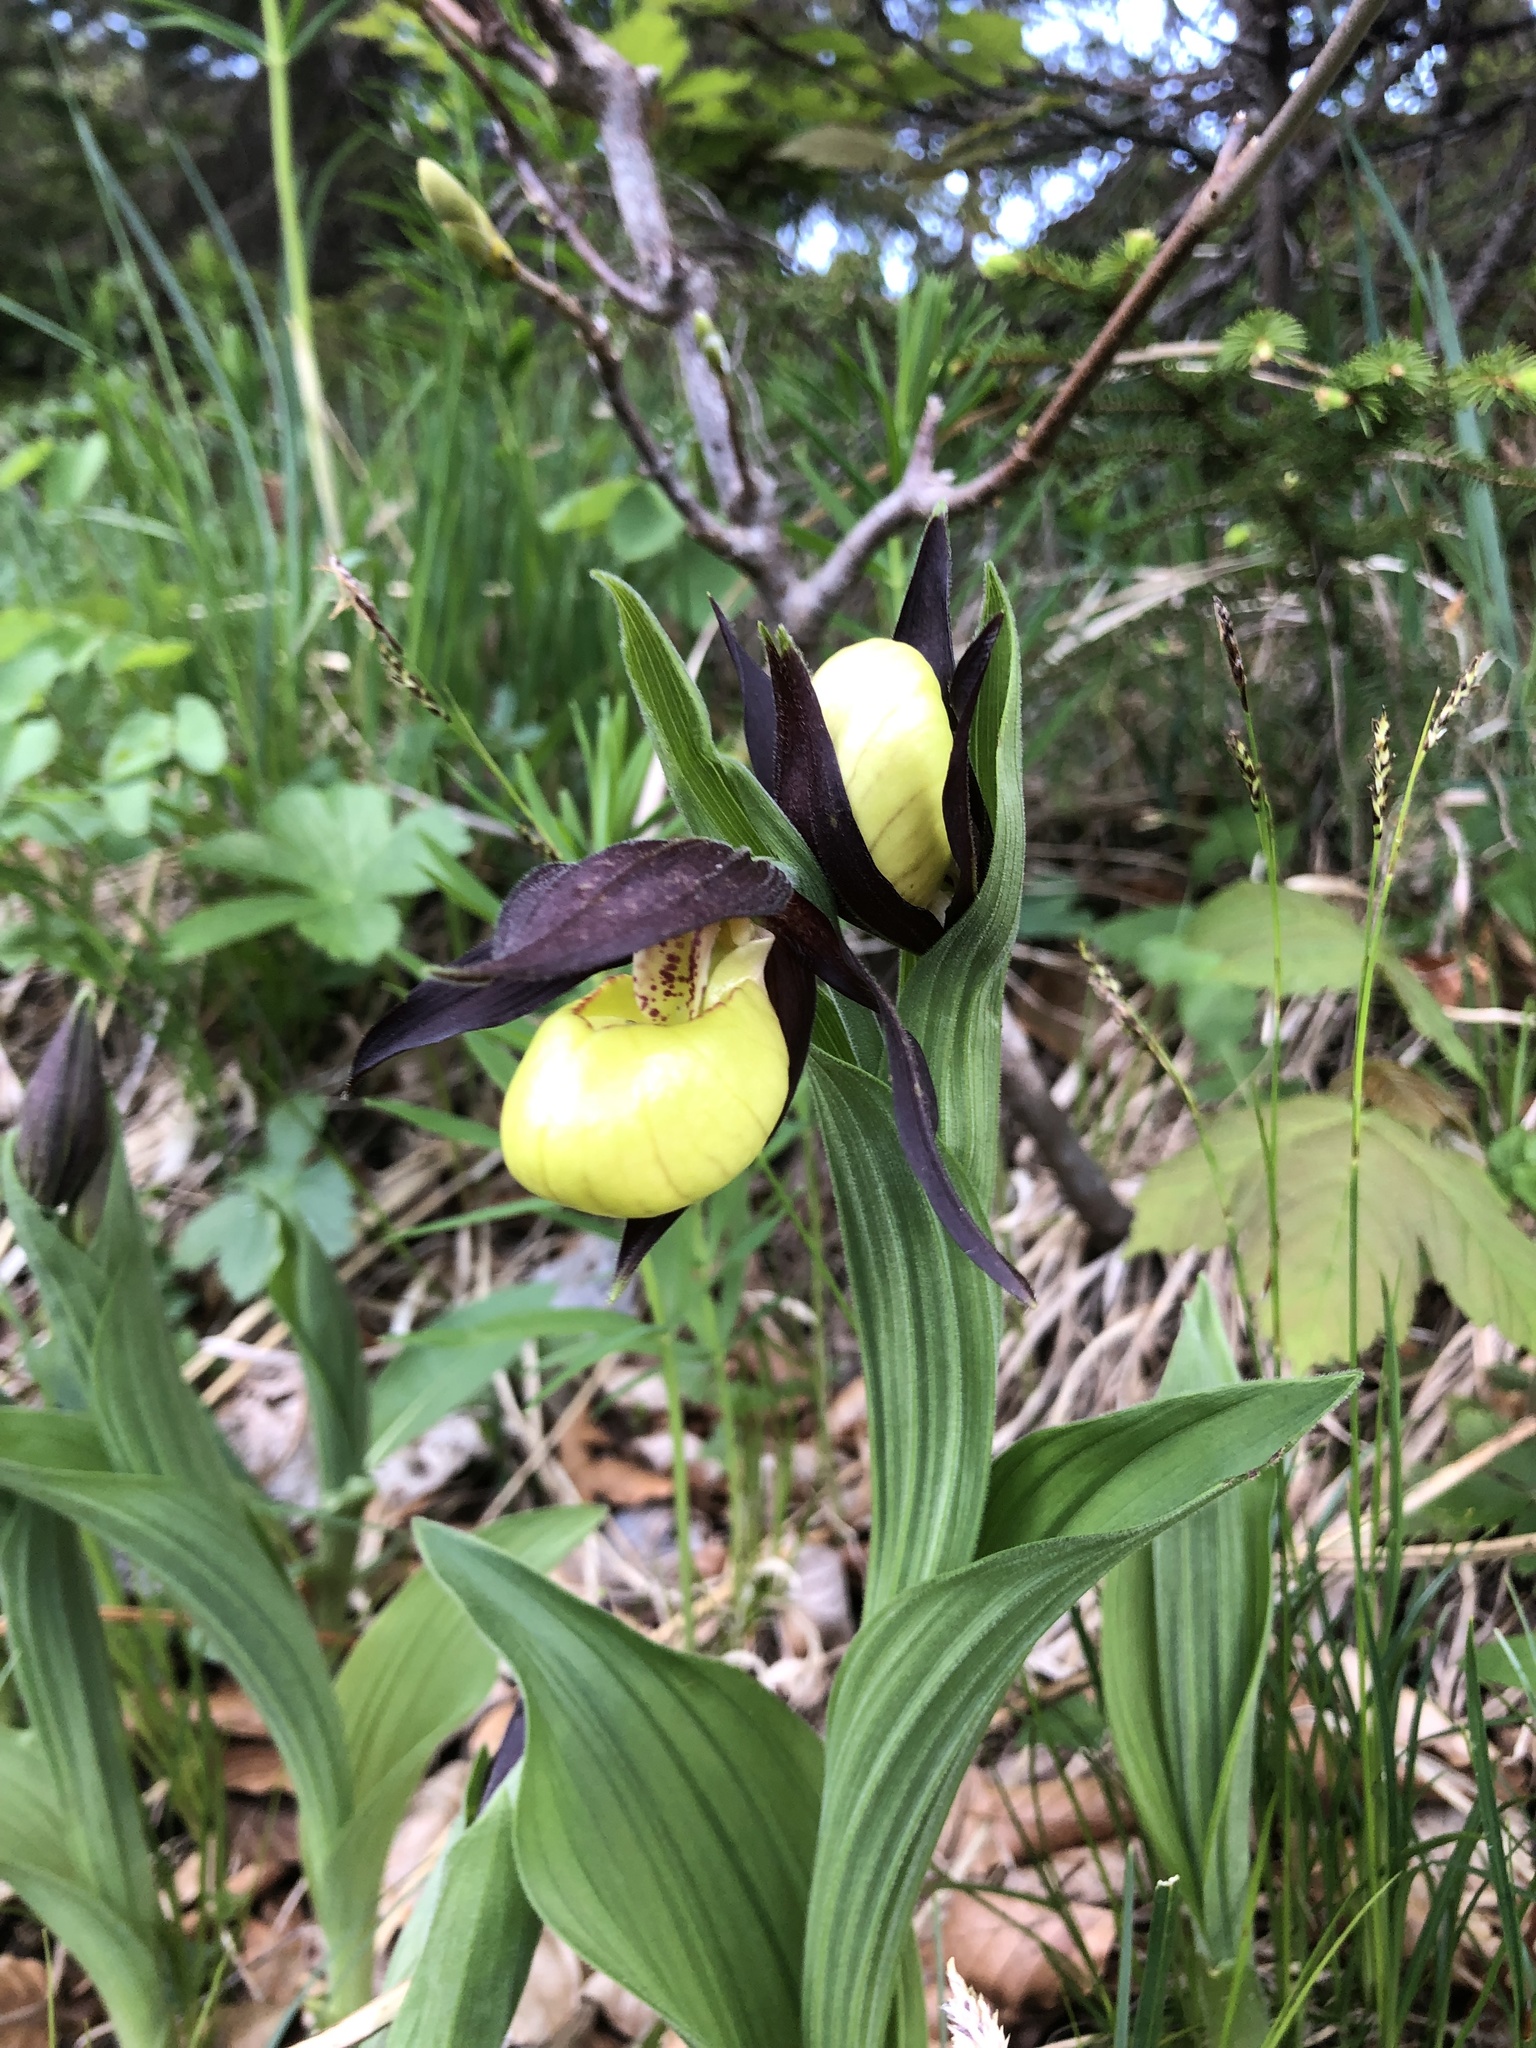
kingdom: Plantae
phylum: Tracheophyta
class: Liliopsida
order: Asparagales
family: Orchidaceae
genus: Cypripedium
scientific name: Cypripedium calceolus
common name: Lady's-slipper
